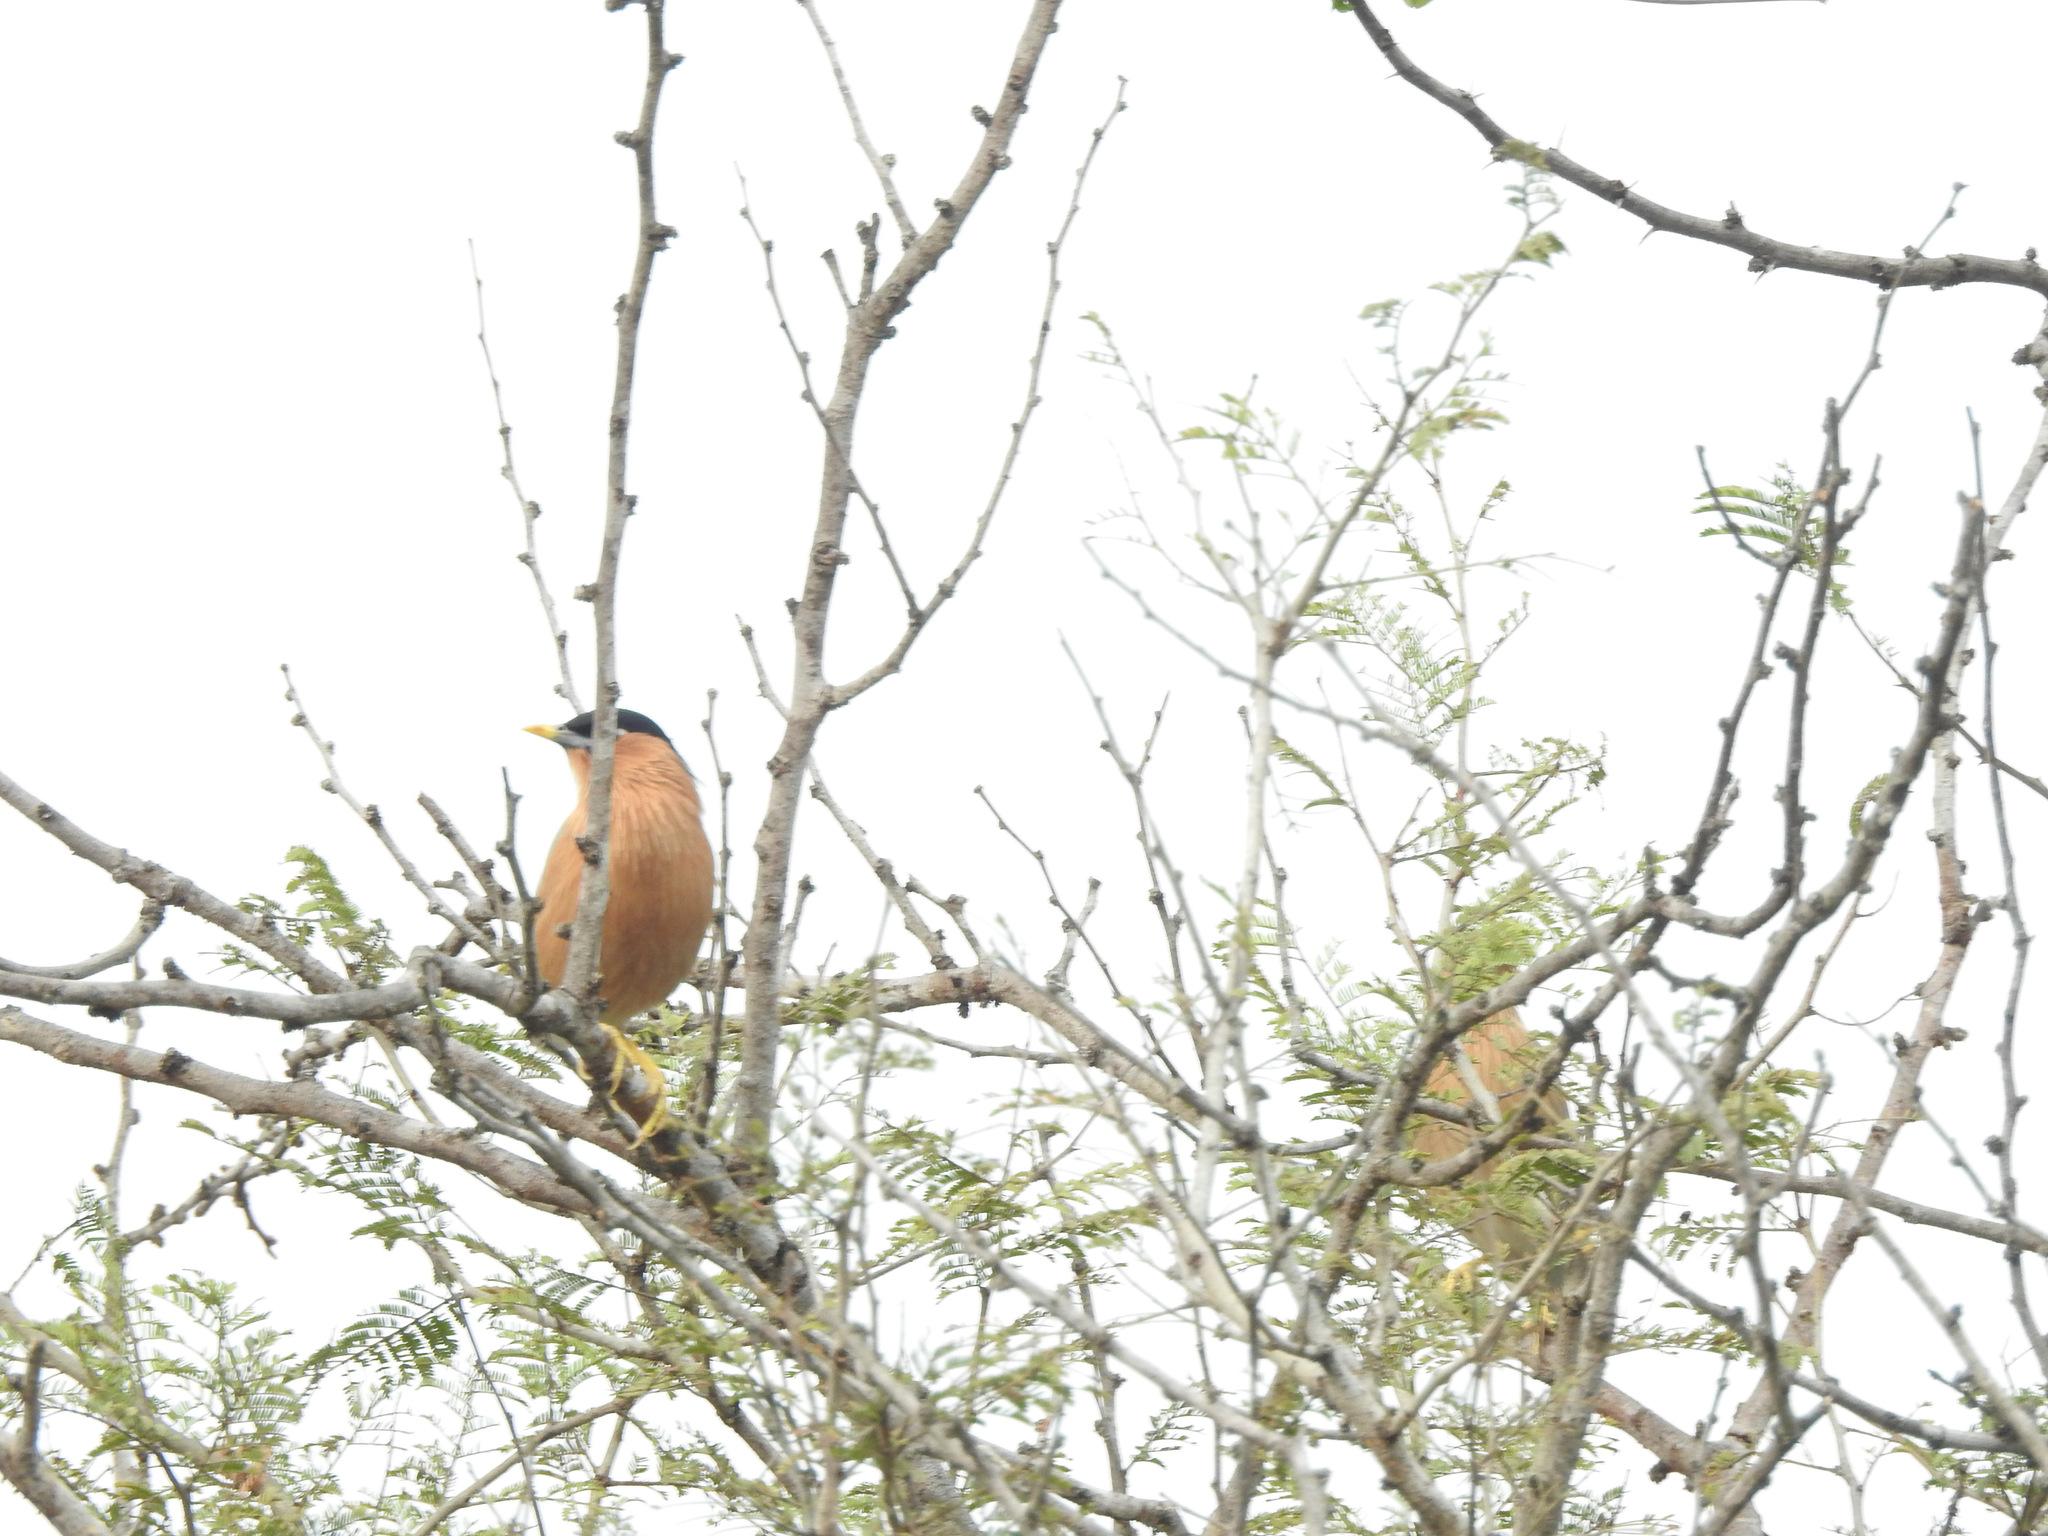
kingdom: Animalia
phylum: Chordata
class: Aves
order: Passeriformes
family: Sturnidae
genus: Sturnia
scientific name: Sturnia pagodarum
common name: Brahminy starling
